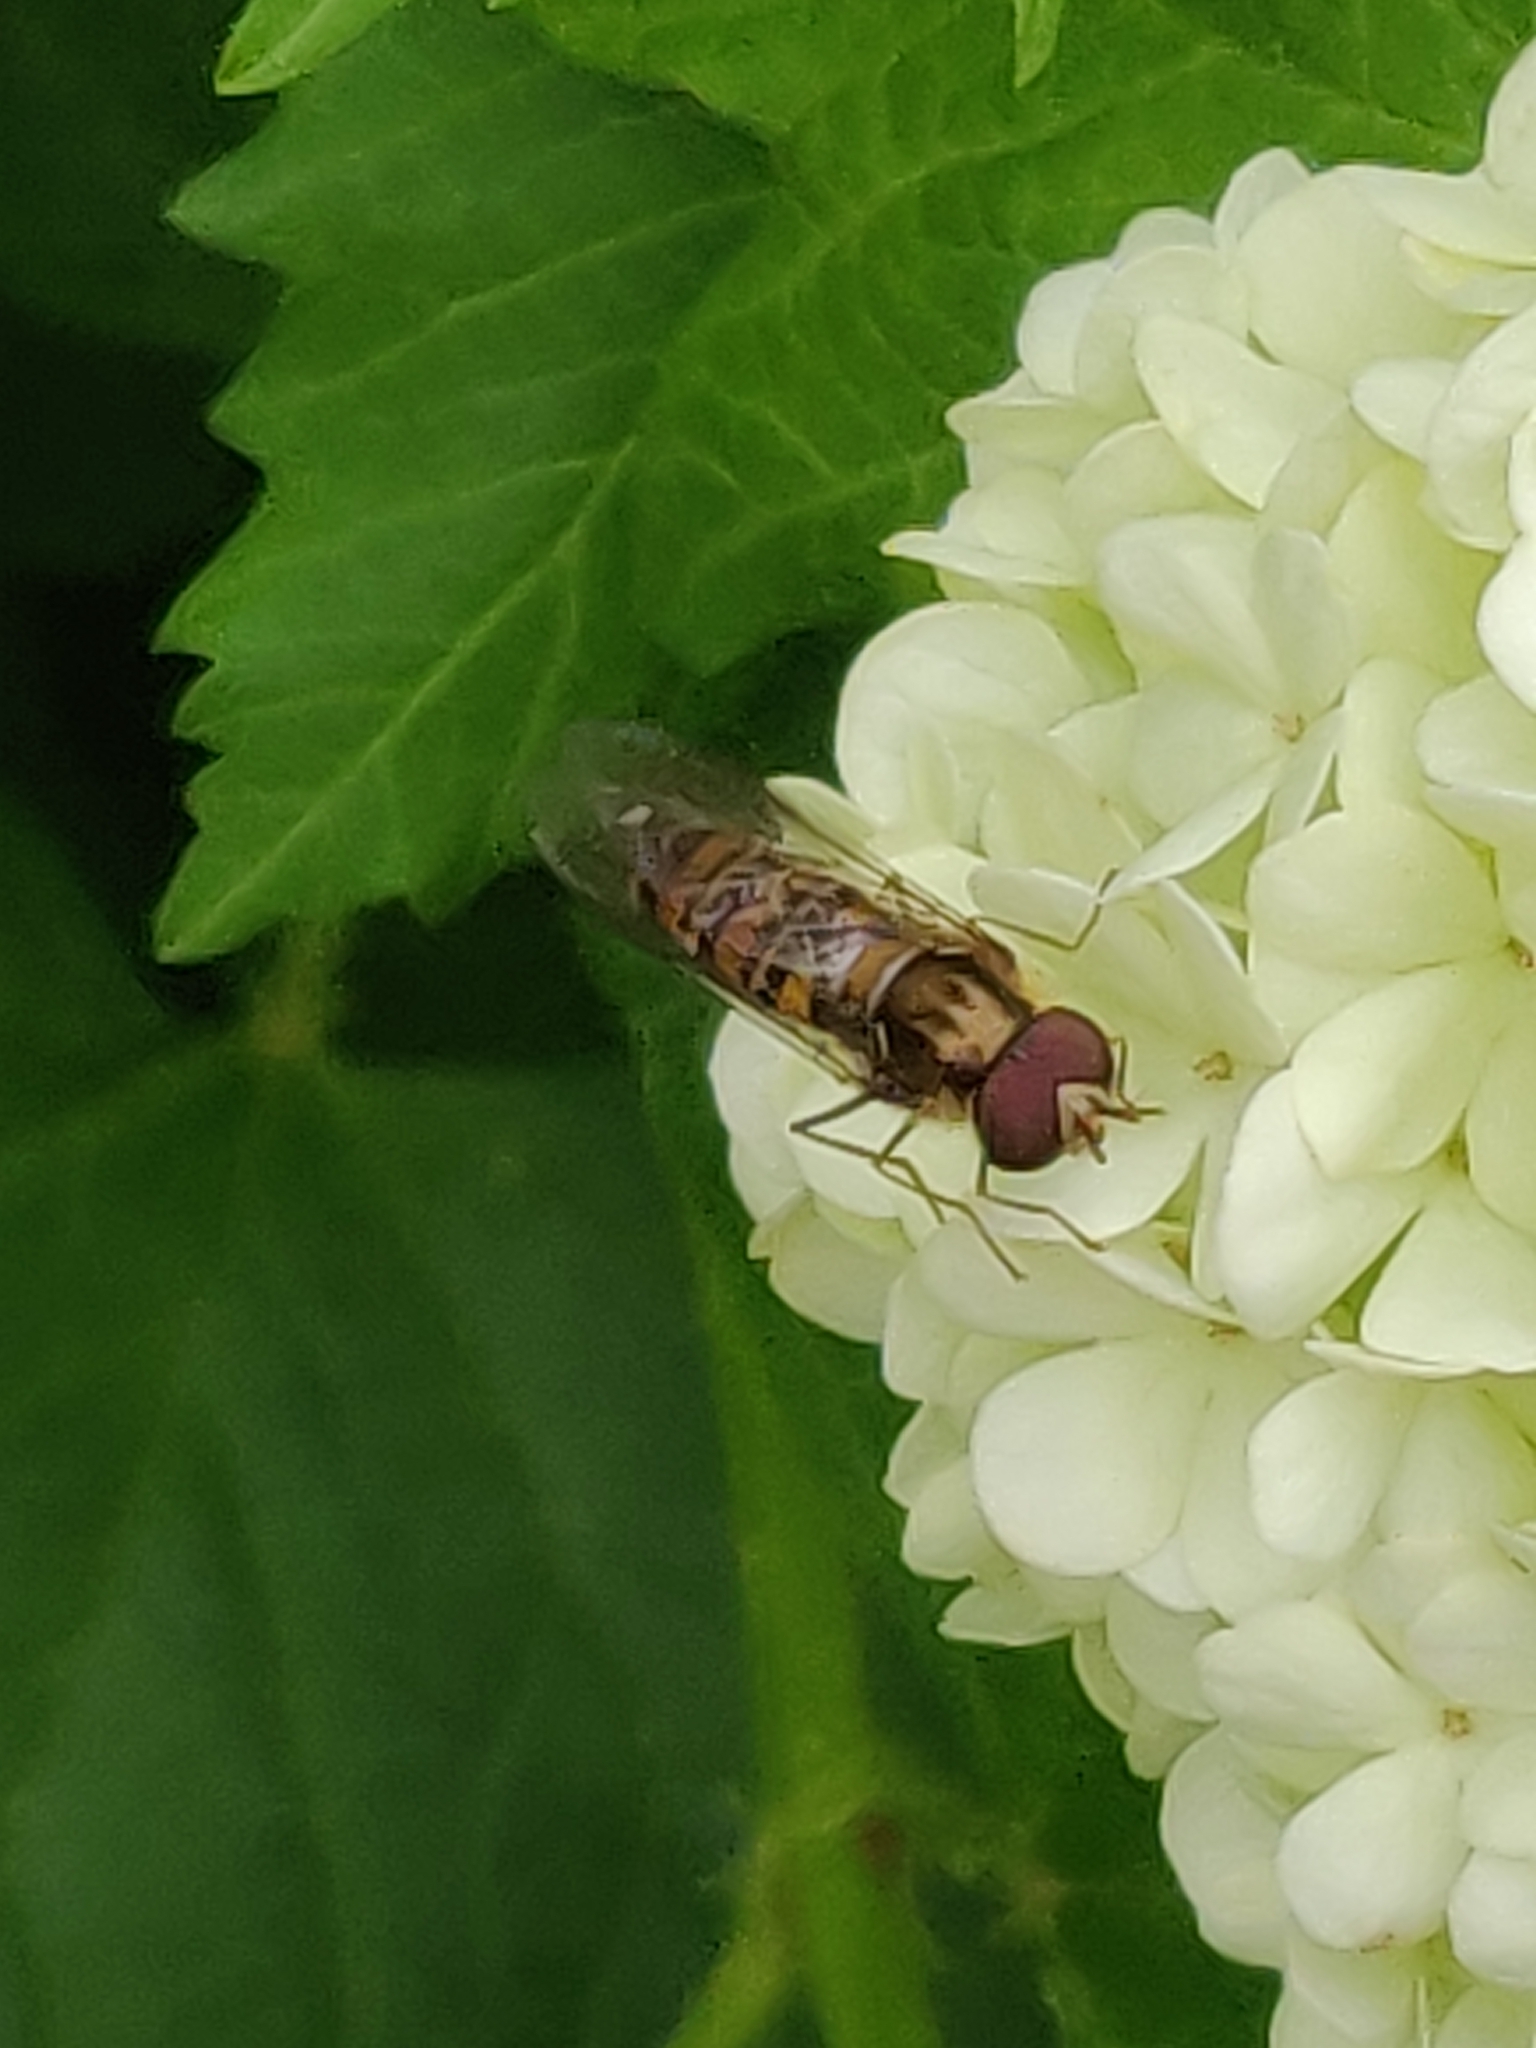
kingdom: Animalia
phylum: Arthropoda
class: Insecta
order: Diptera
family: Syrphidae
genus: Episyrphus
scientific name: Episyrphus balteatus
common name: Marmalade hoverfly
